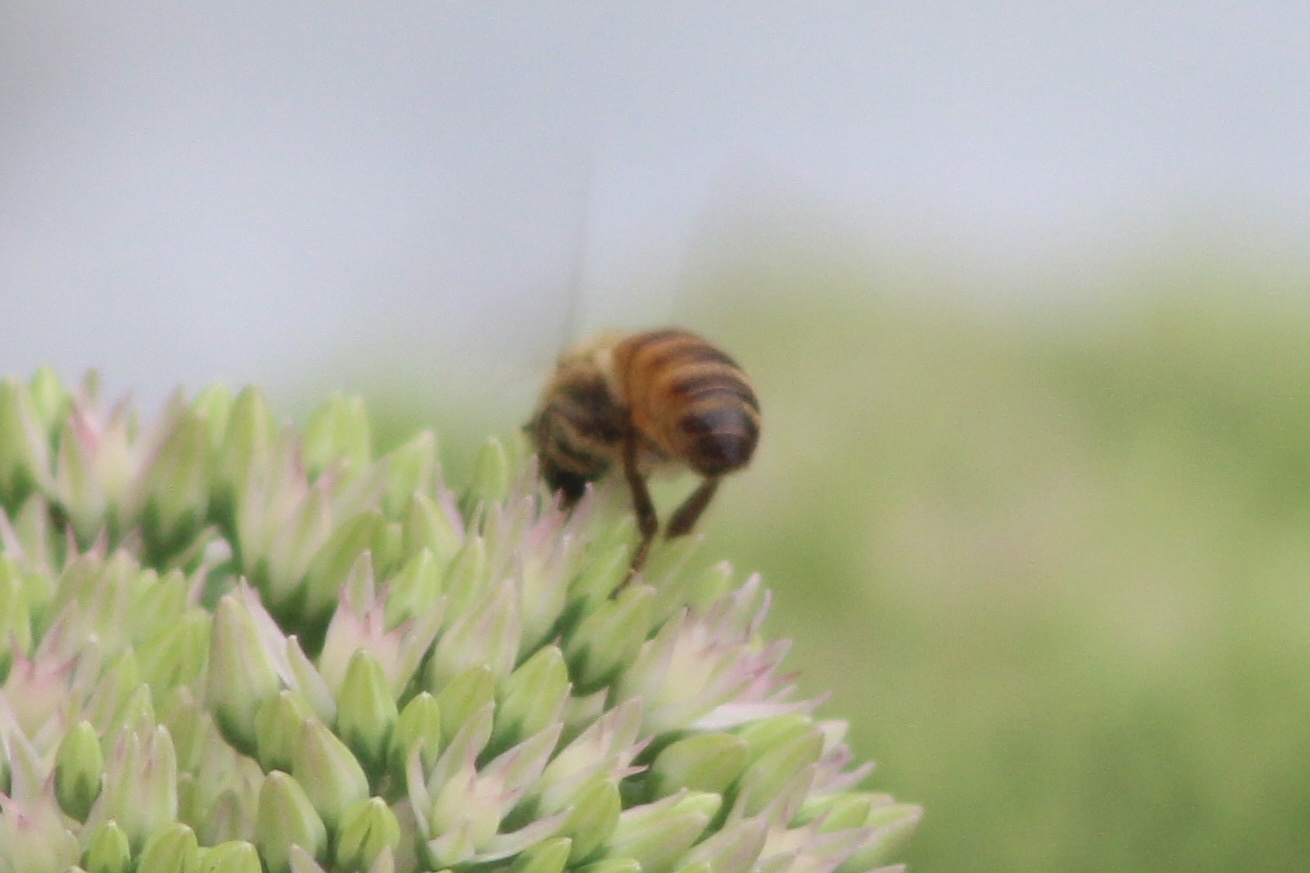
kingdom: Animalia
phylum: Arthropoda
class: Insecta
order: Hymenoptera
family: Apidae
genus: Apis
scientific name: Apis mellifera
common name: Honey bee
